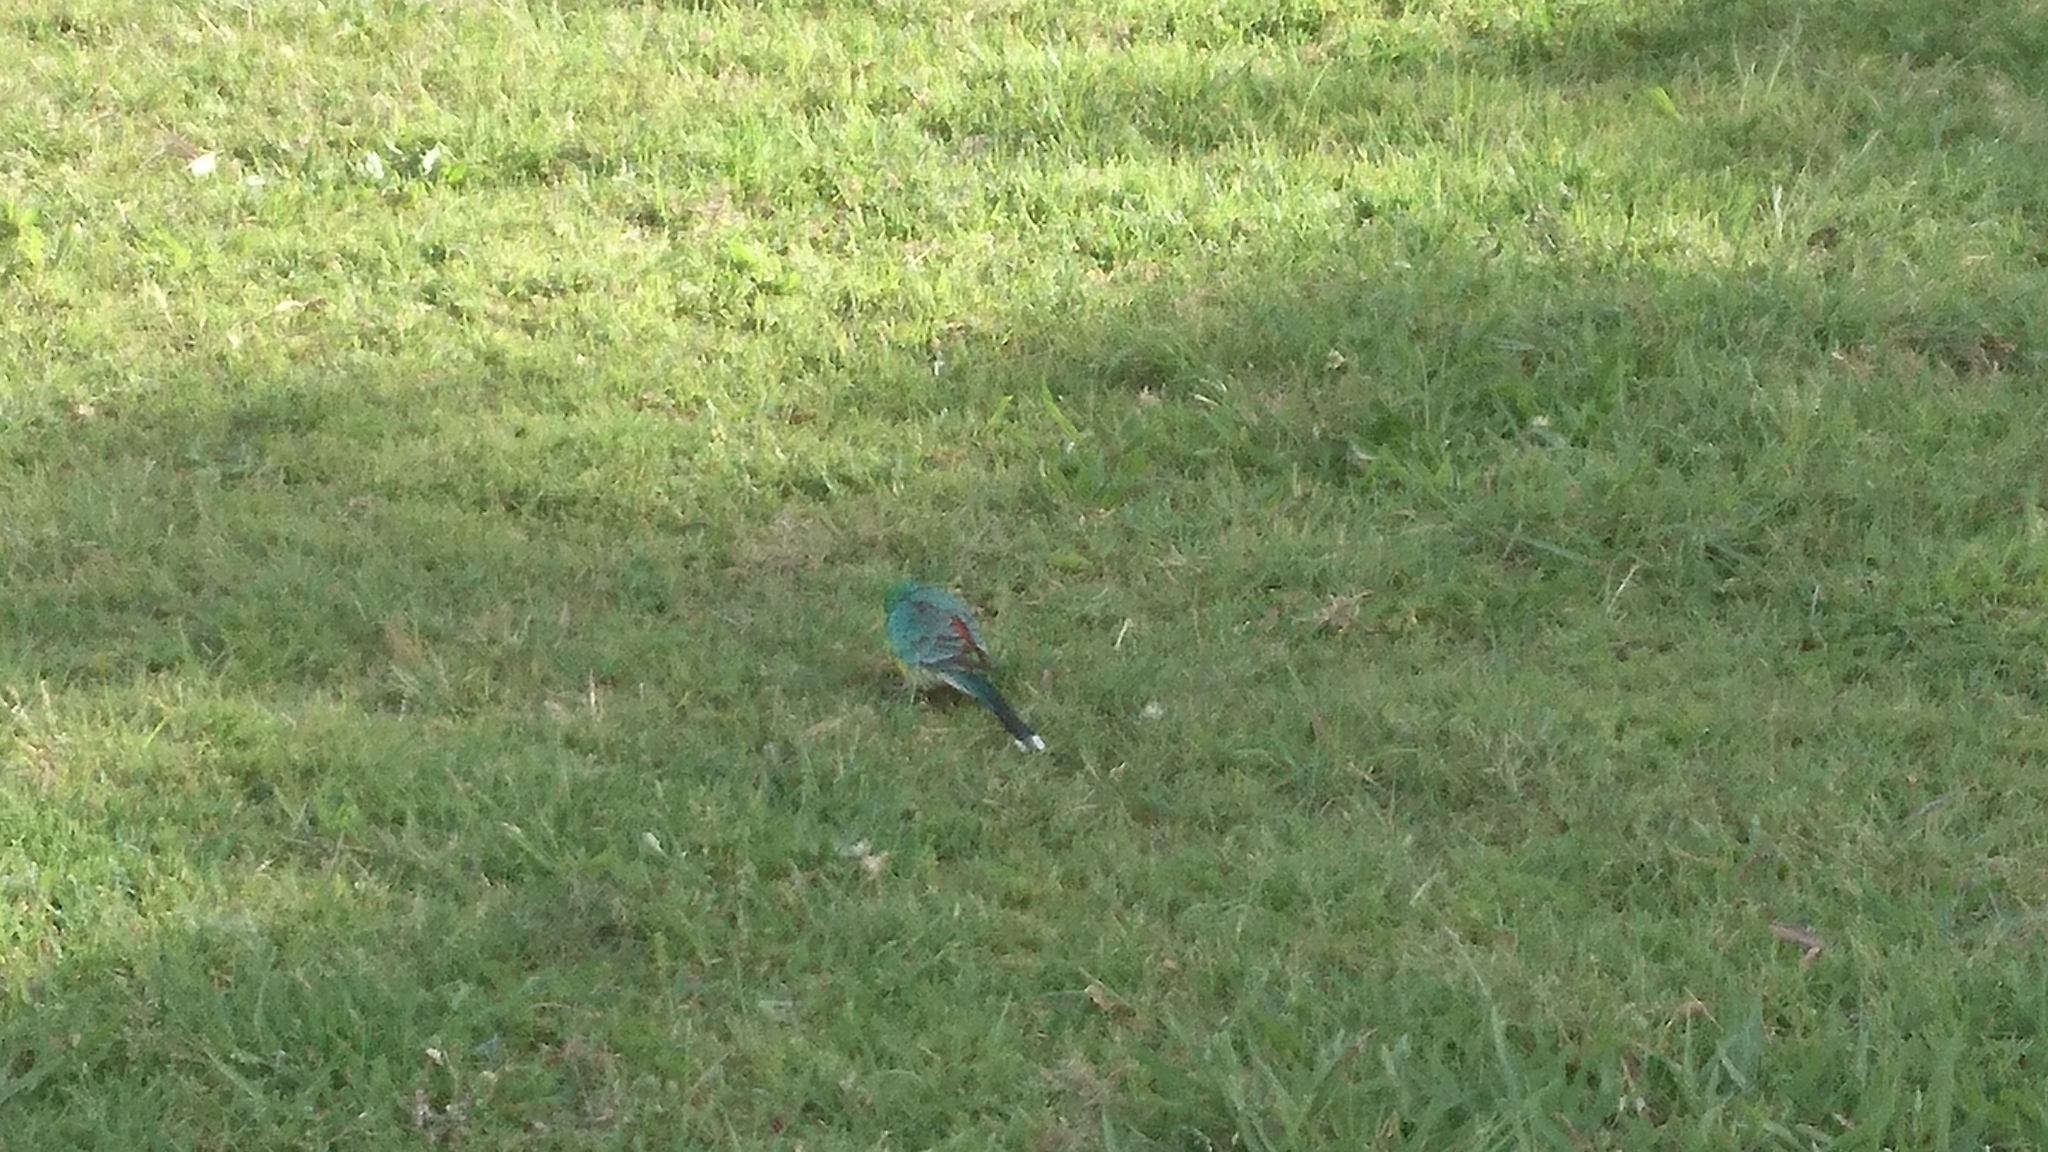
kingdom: Animalia
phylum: Chordata
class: Aves
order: Psittaciformes
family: Psittacidae
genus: Psephotus
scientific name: Psephotus haematonotus
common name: Red-rumped parrot
